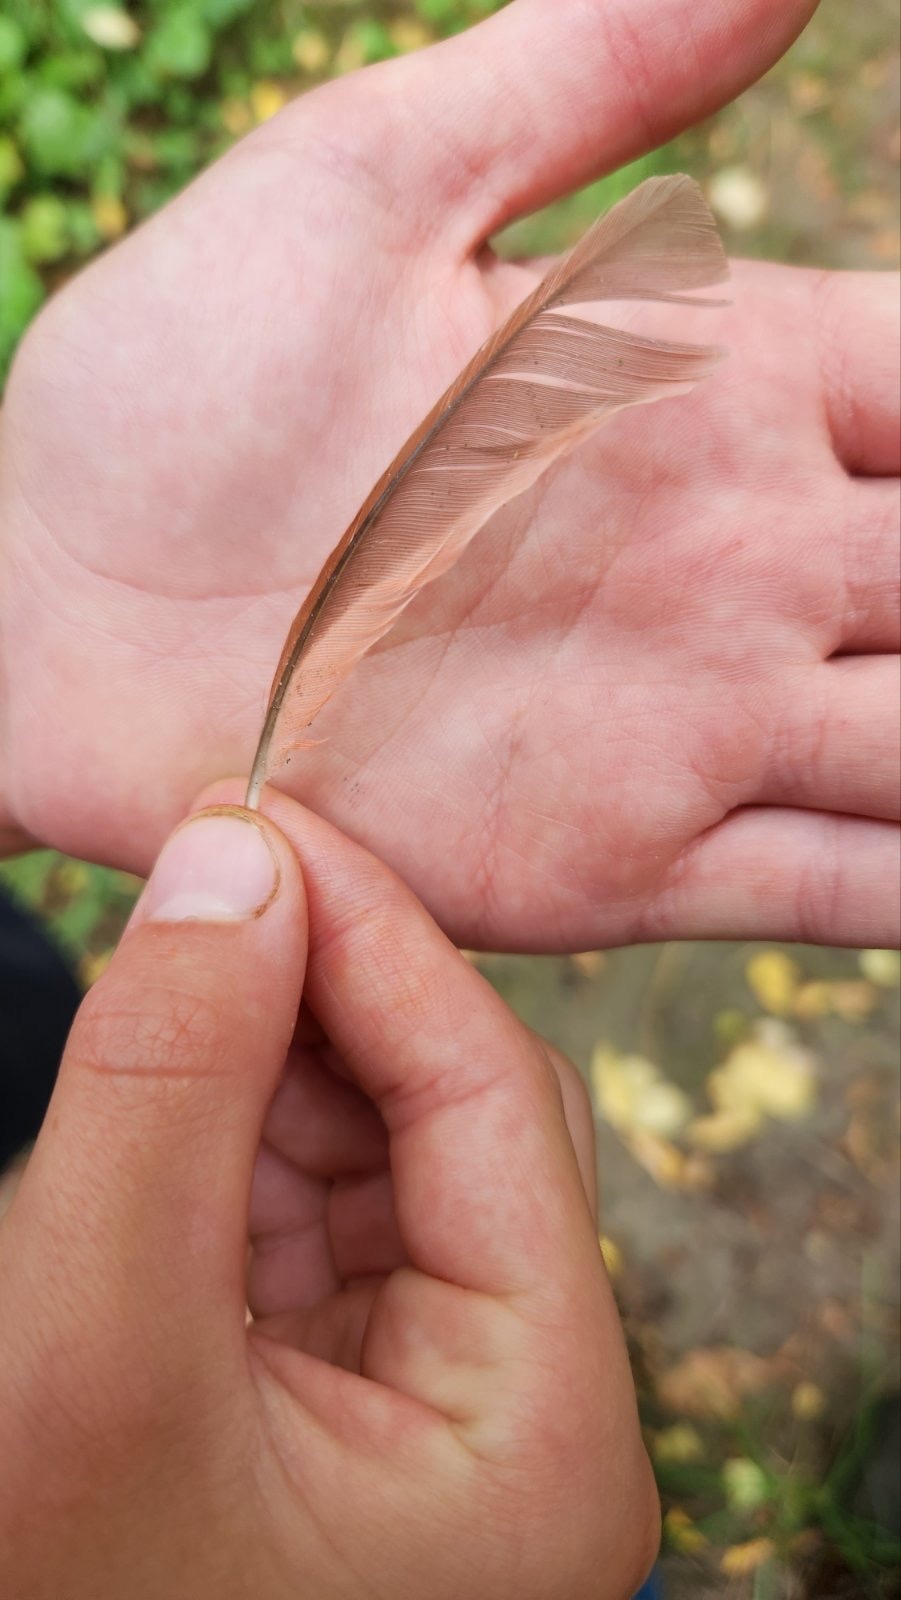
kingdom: Animalia
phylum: Chordata
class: Aves
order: Passeriformes
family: Cardinalidae
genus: Cardinalis
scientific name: Cardinalis cardinalis
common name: Northern cardinal
